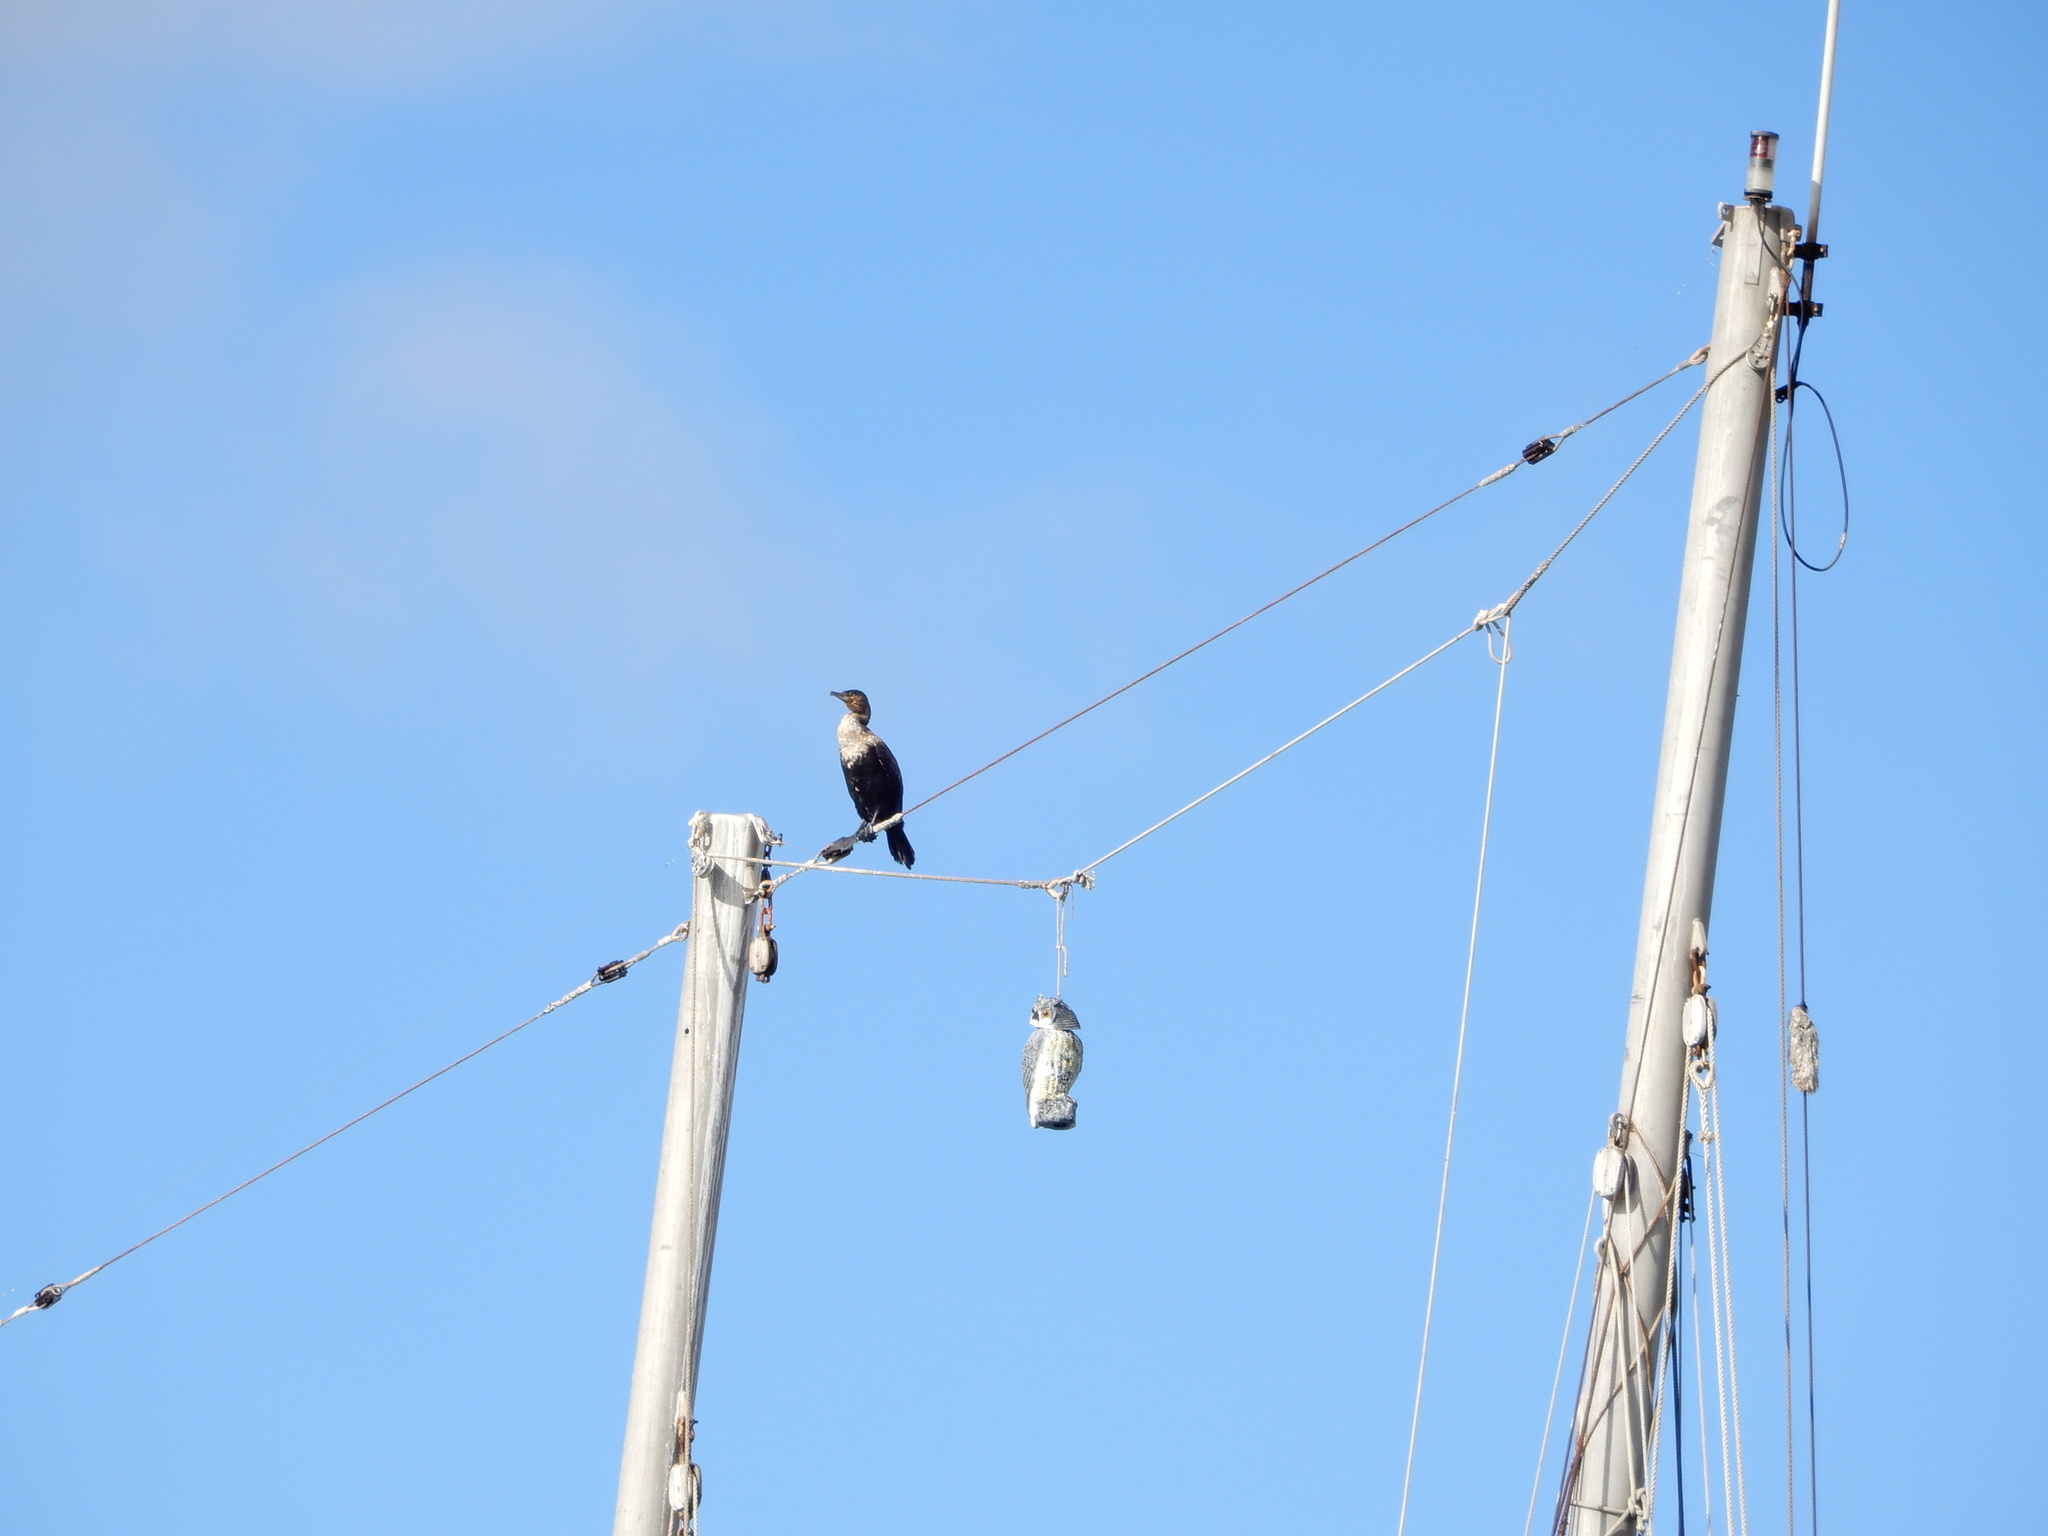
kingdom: Animalia
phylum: Chordata
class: Aves
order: Suliformes
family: Phalacrocoracidae
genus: Phalacrocorax
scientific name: Phalacrocorax carbo
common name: Great cormorant
